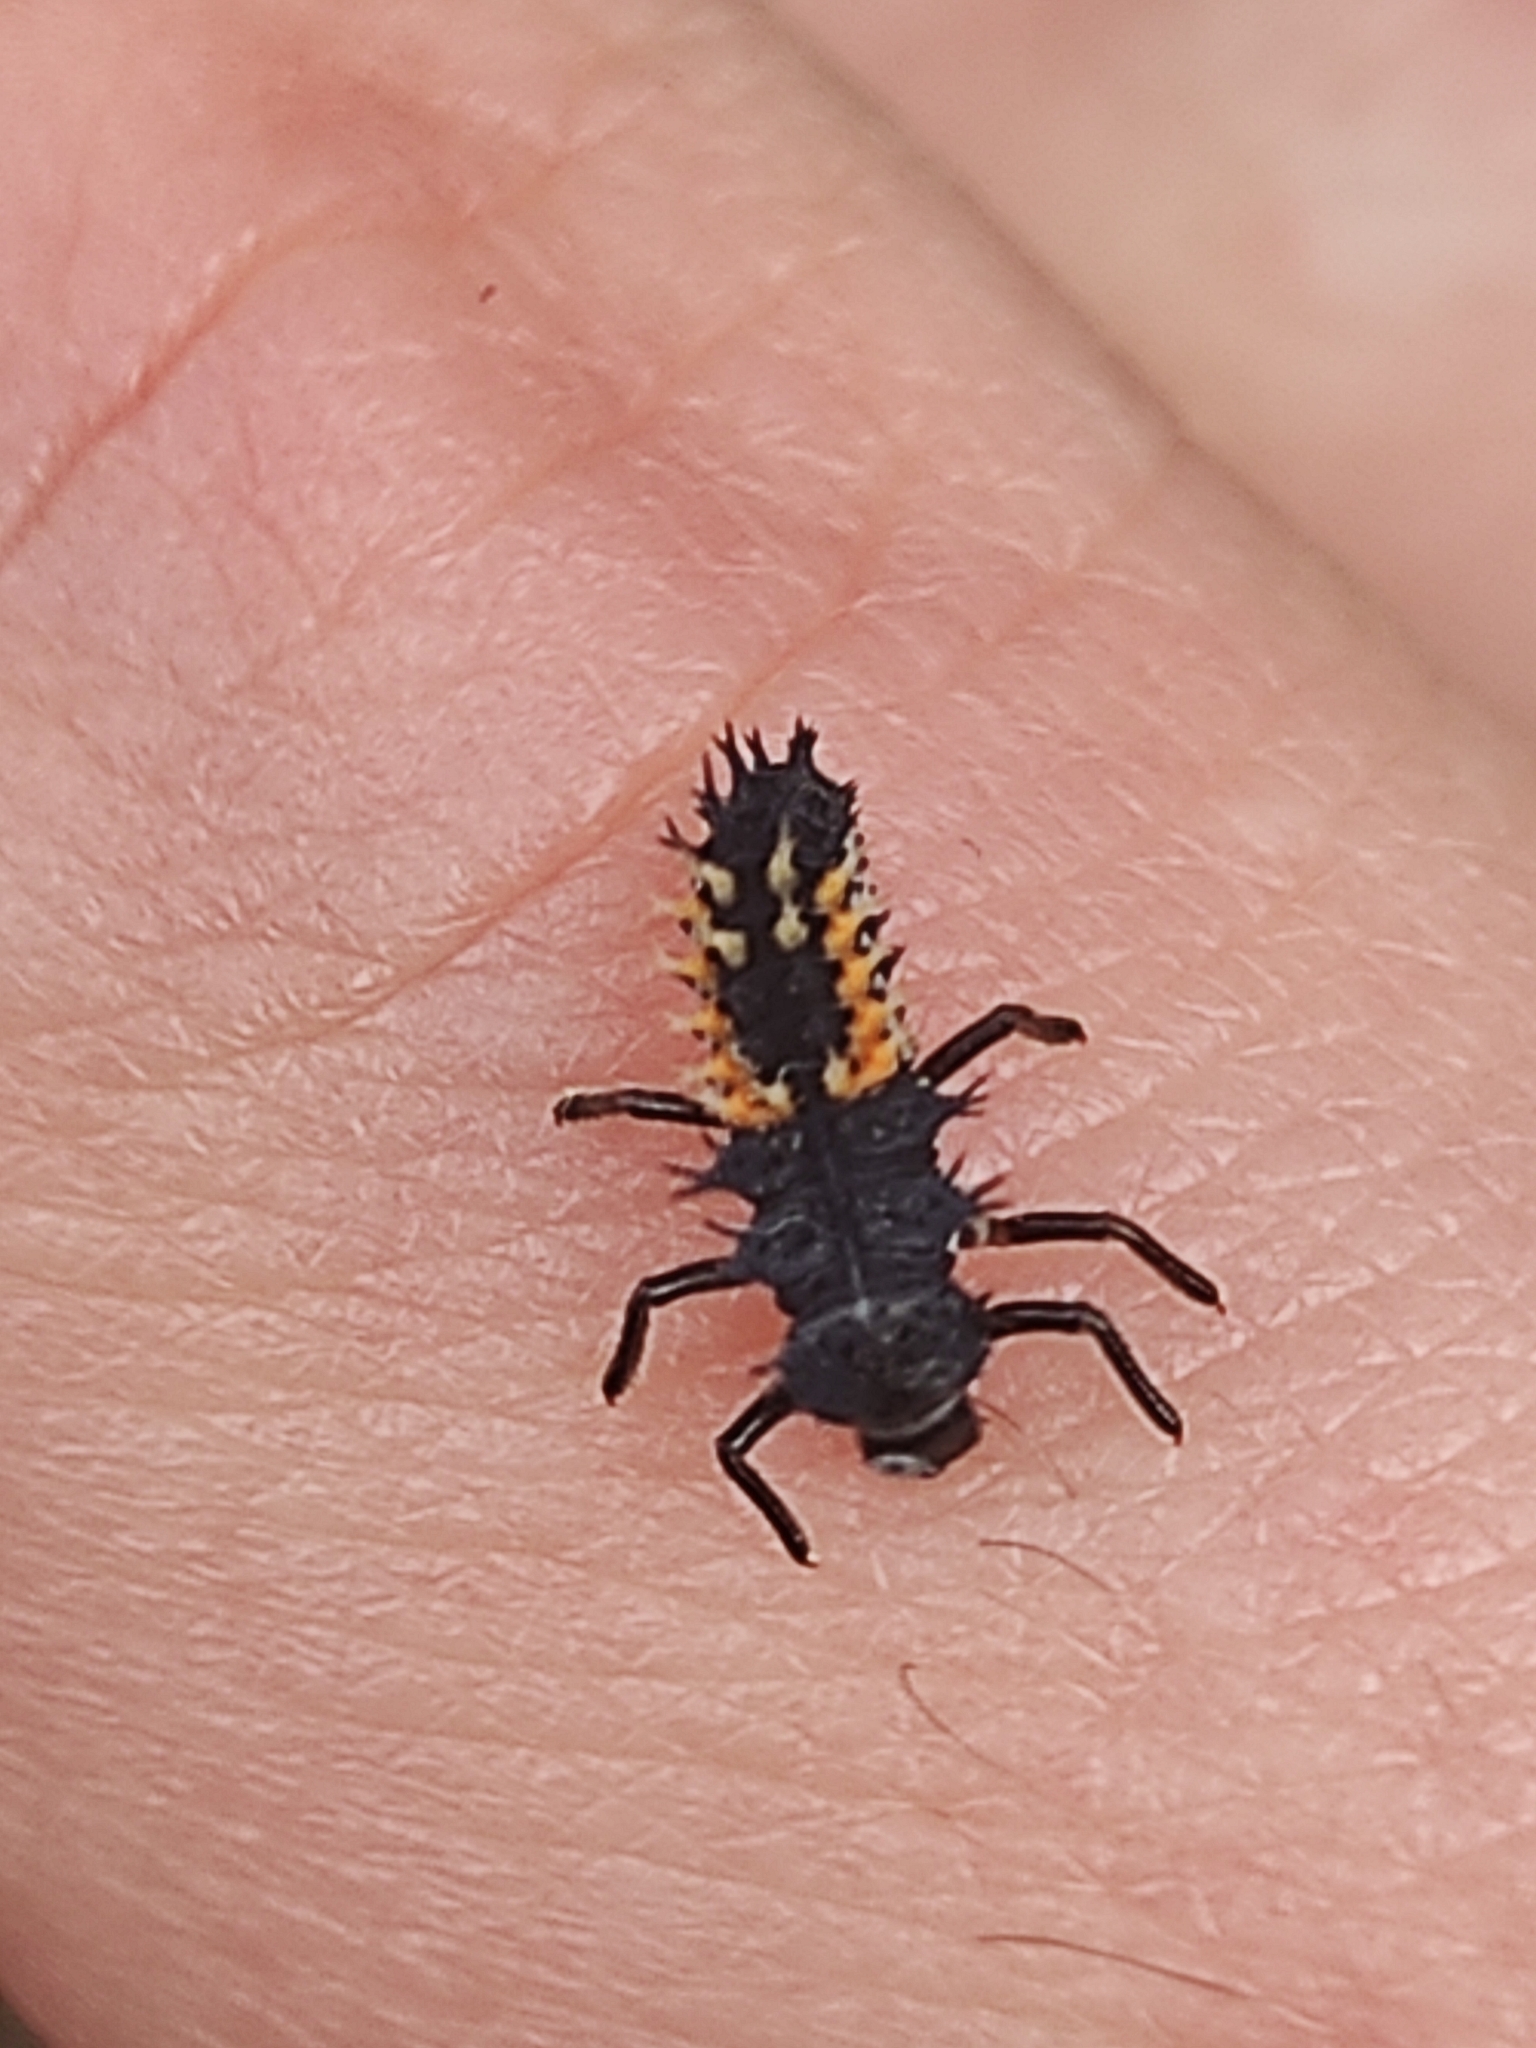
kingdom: Animalia
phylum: Arthropoda
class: Insecta
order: Coleoptera
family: Coccinellidae
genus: Harmonia
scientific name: Harmonia axyridis
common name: Harlequin ladybird
